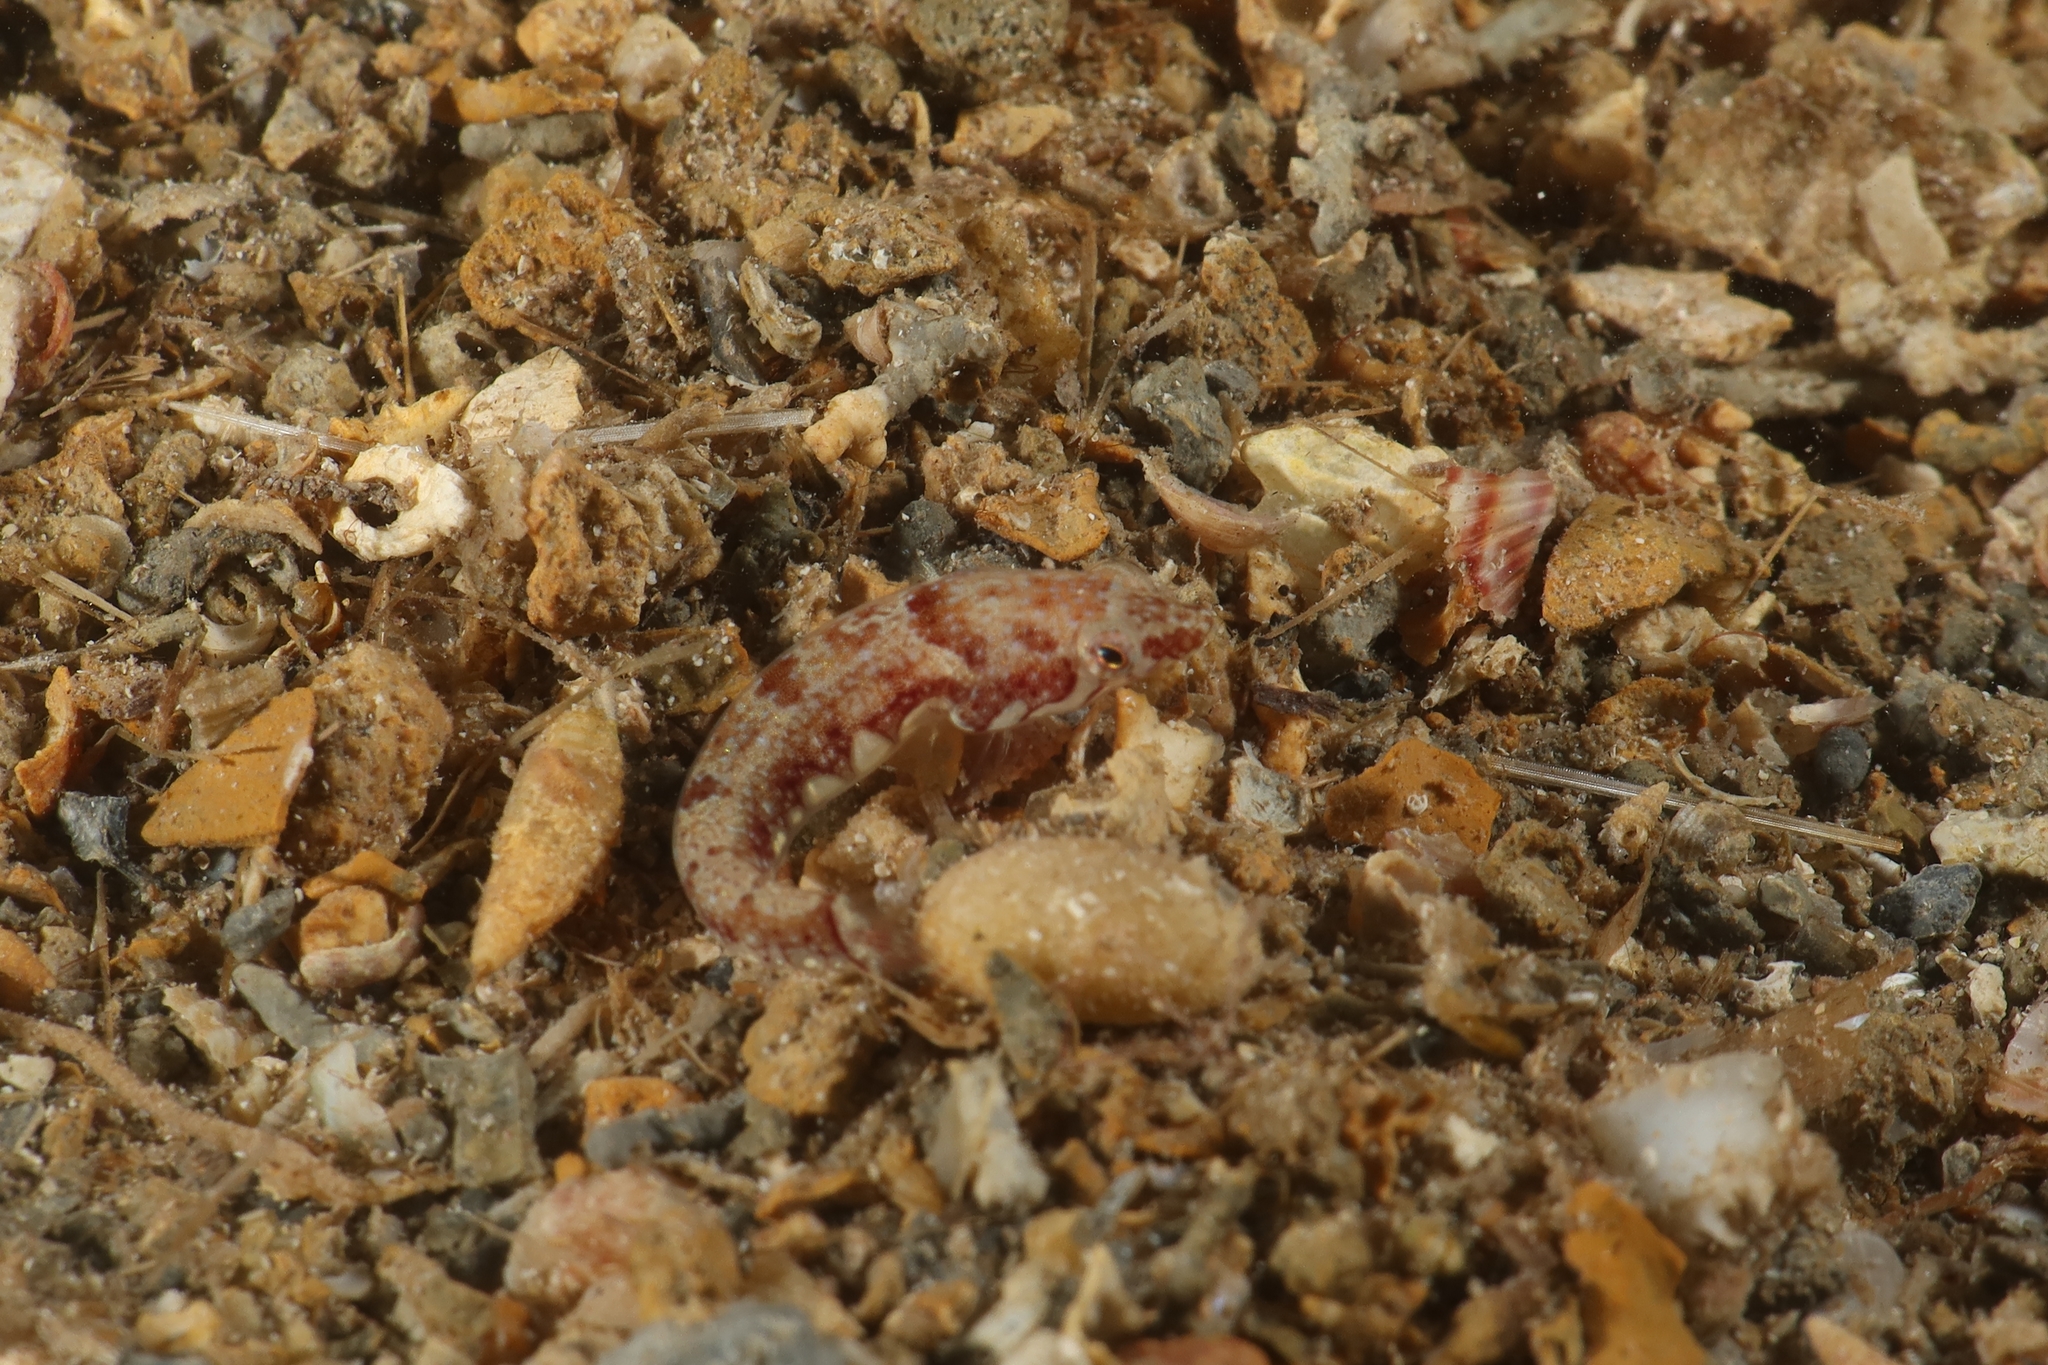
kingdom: Animalia
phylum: Chordata
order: Gobiesociformes
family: Gobiesocidae
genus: Diplecogaster
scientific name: Diplecogaster bimaculata
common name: Two-spotted clingfish
